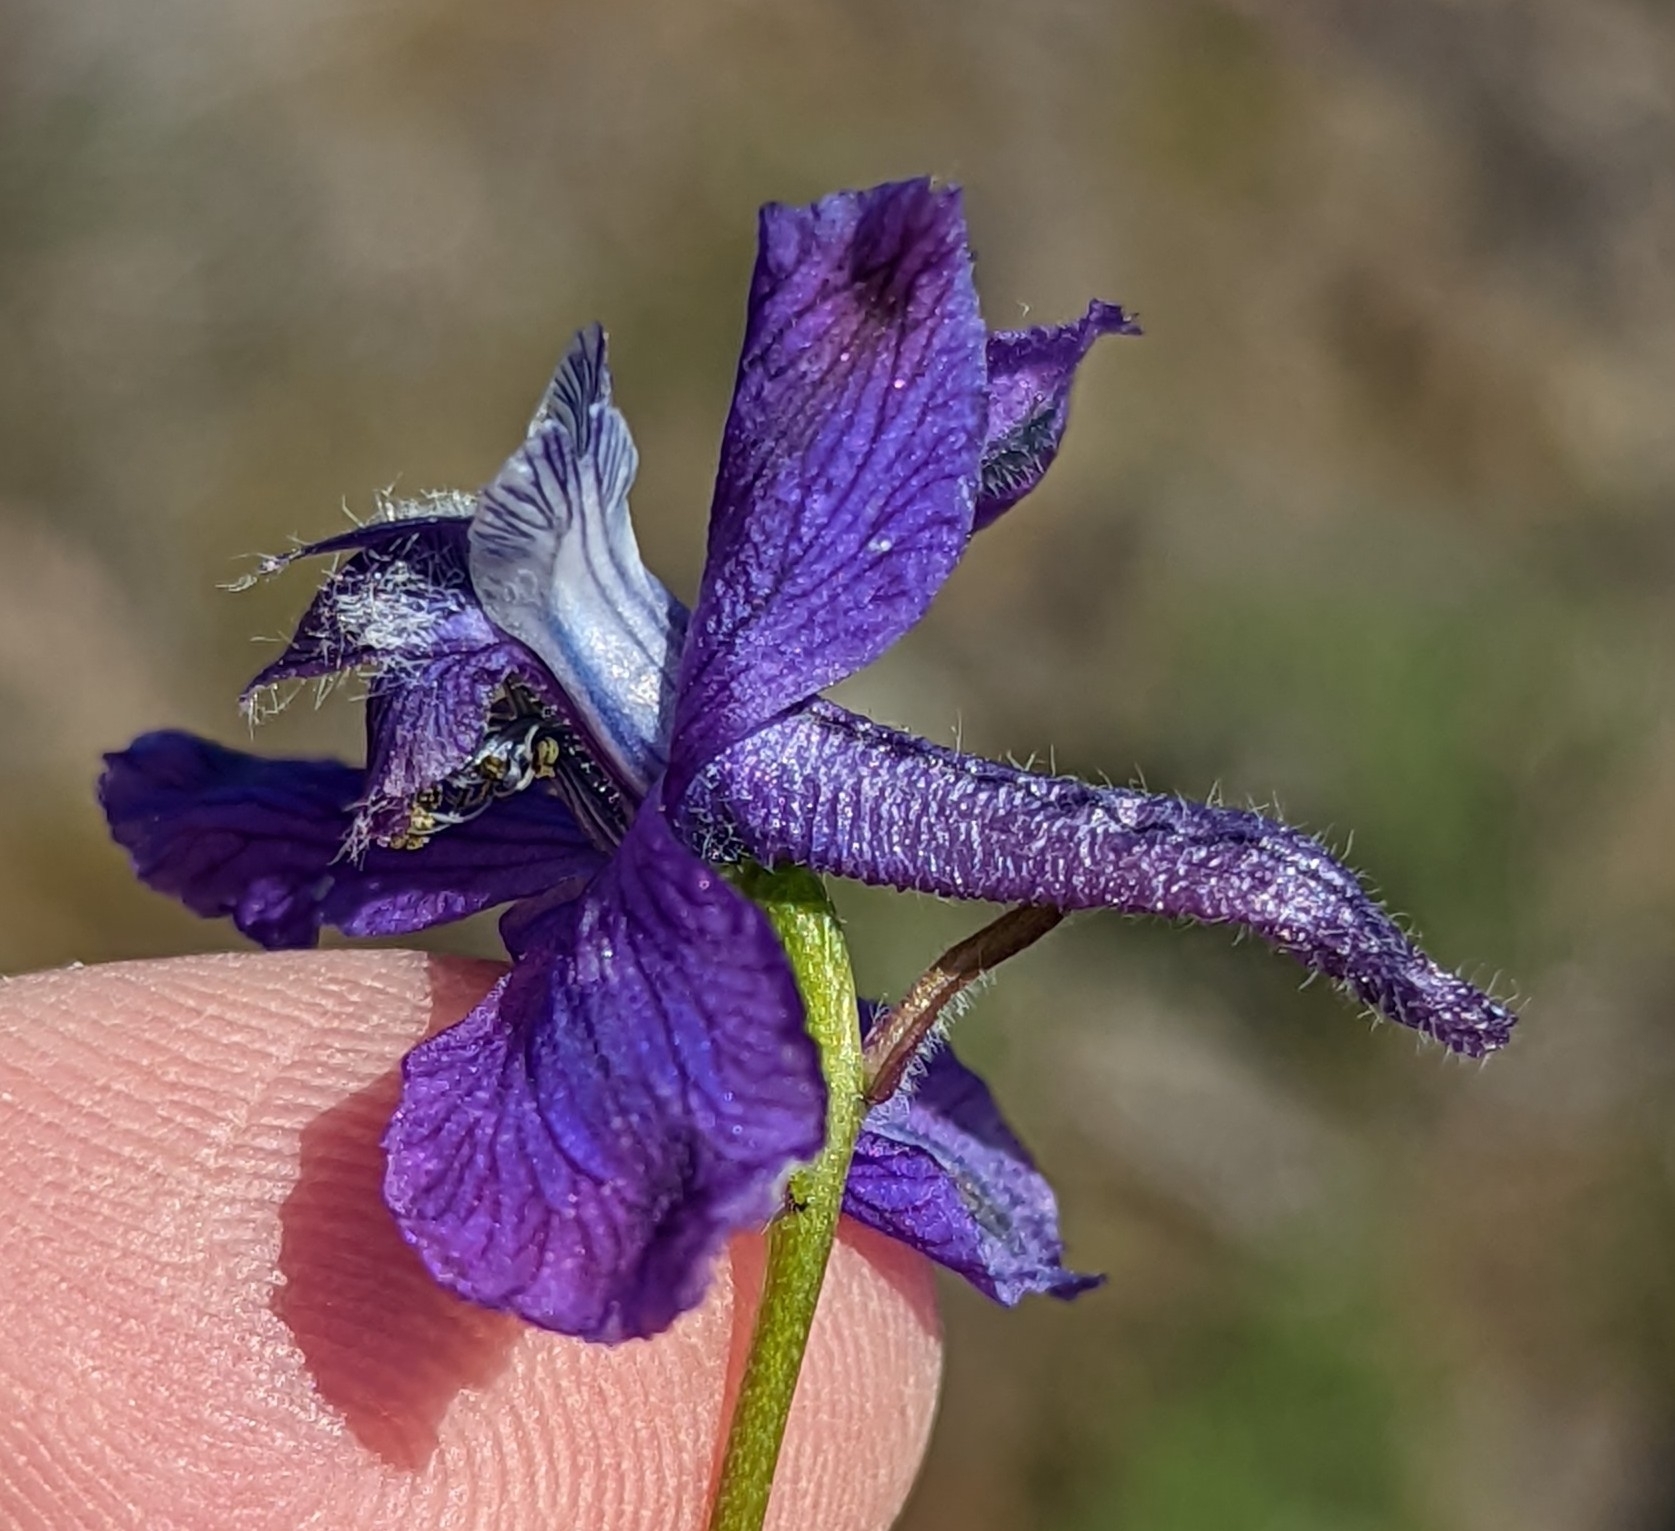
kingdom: Plantae
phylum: Tracheophyta
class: Magnoliopsida
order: Ranunculales
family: Ranunculaceae
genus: Delphinium
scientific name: Delphinium nuttallianum
